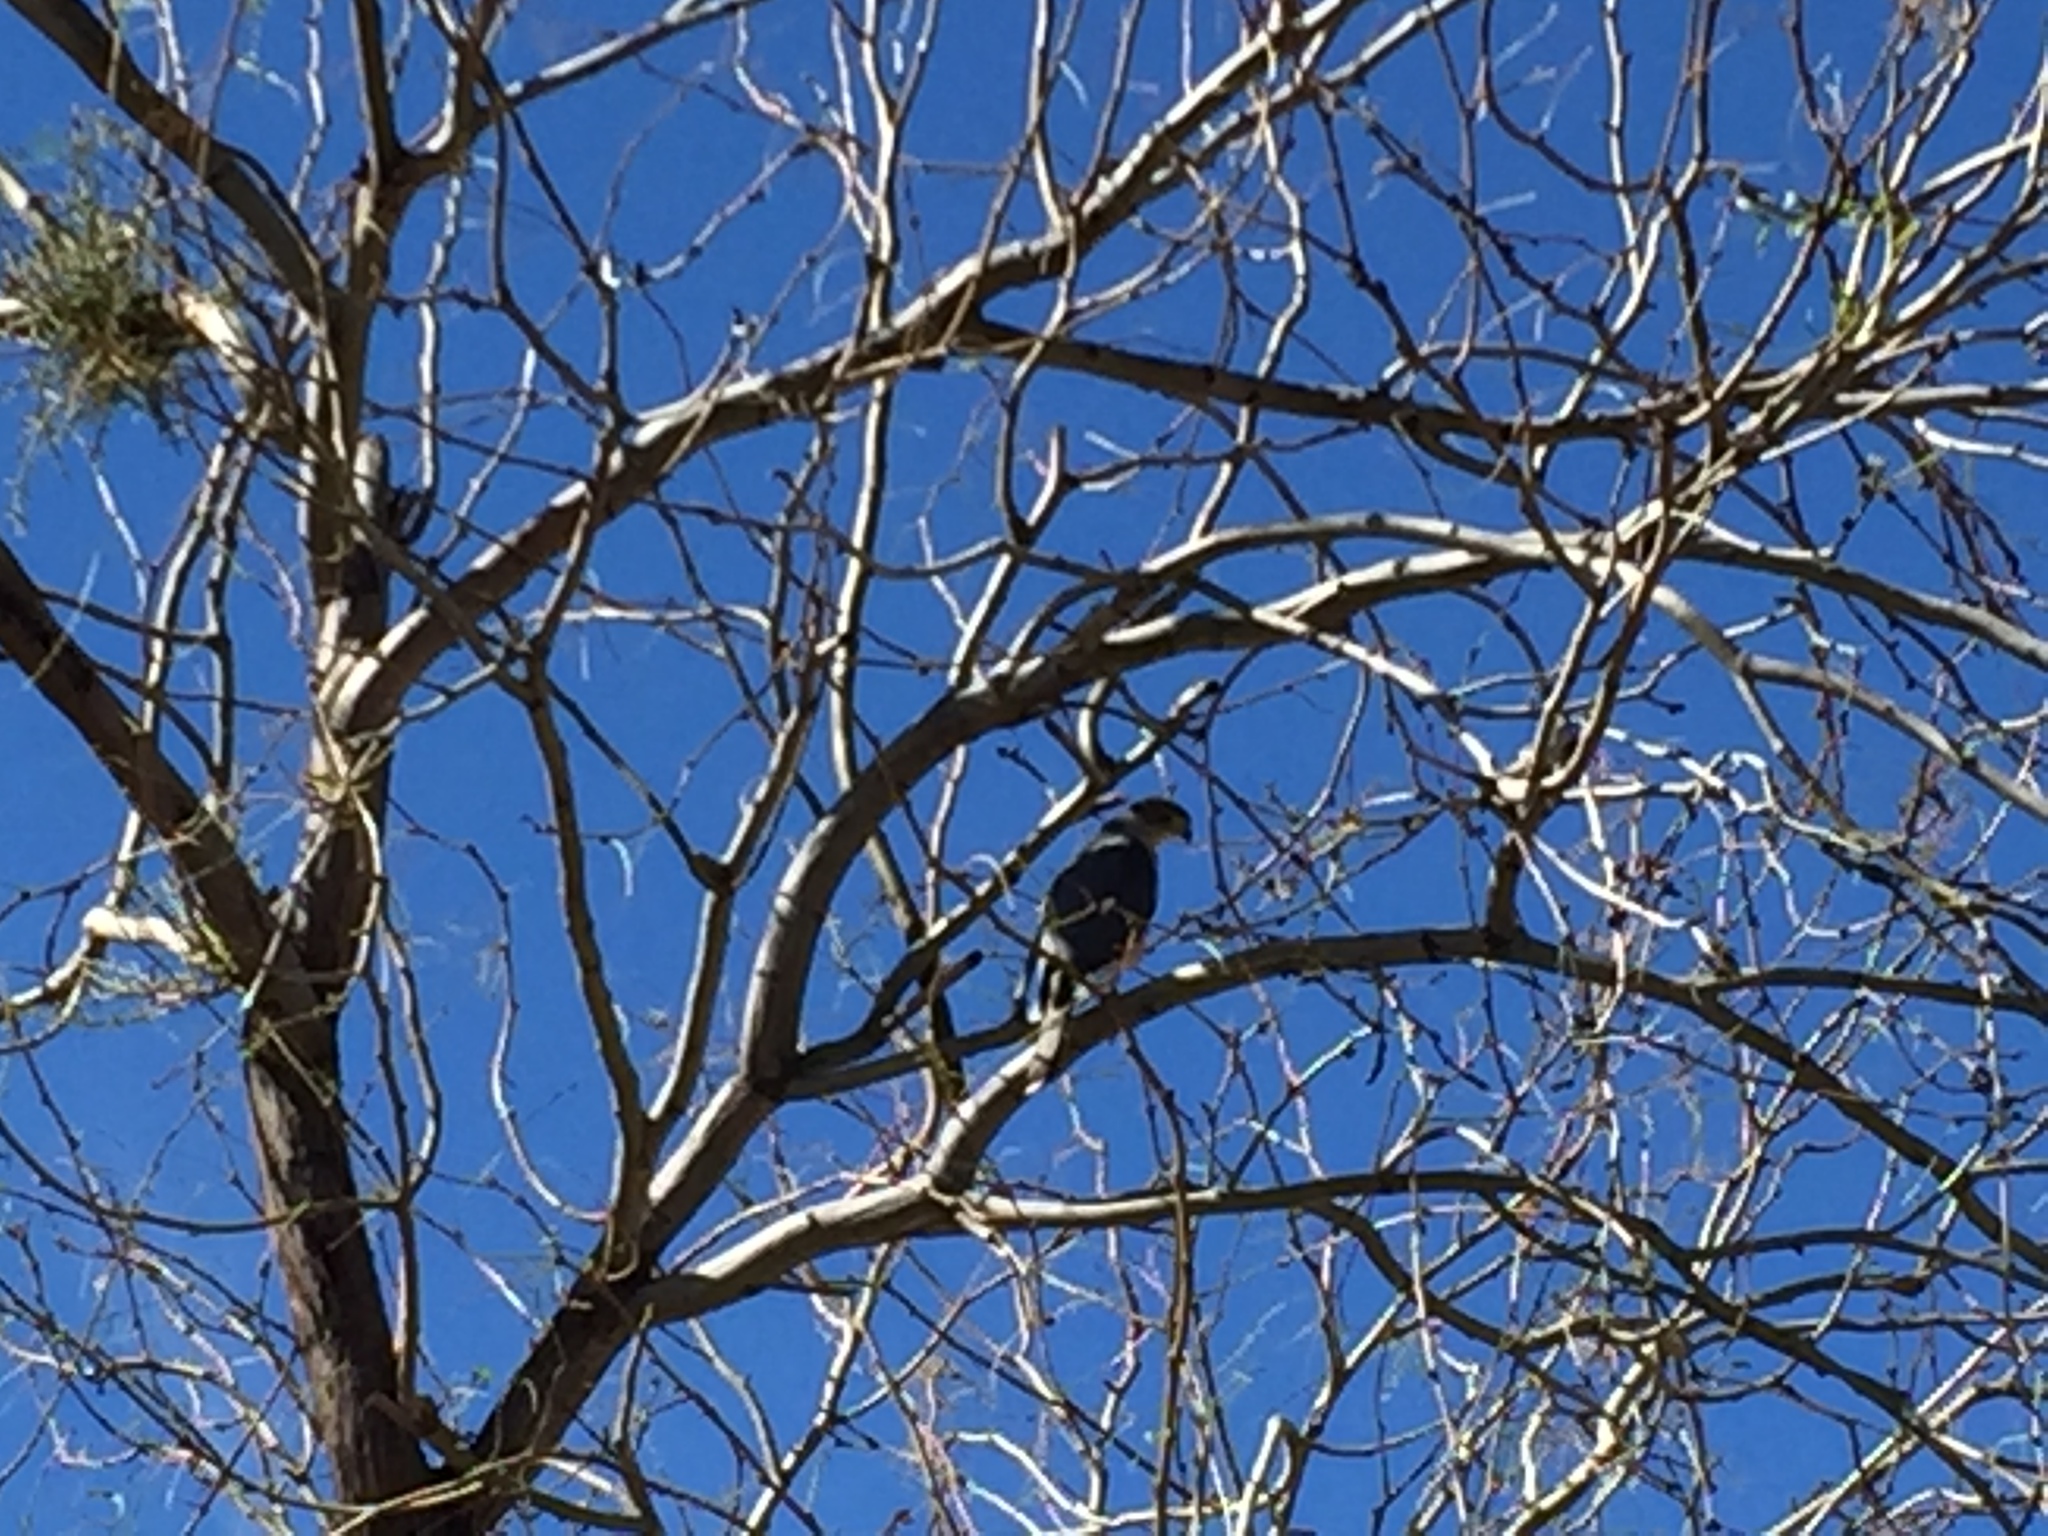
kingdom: Animalia
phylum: Chordata
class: Aves
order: Accipitriformes
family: Accipitridae
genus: Accipiter
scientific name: Accipiter cooperii
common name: Cooper's hawk
